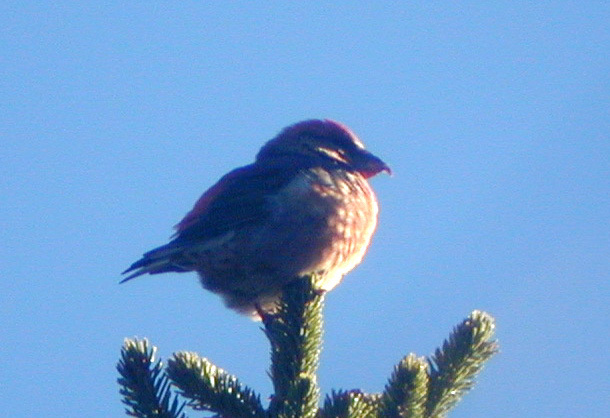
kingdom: Animalia
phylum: Chordata
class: Aves
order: Passeriformes
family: Fringillidae
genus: Loxia
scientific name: Loxia curvirostra
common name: Red crossbill
